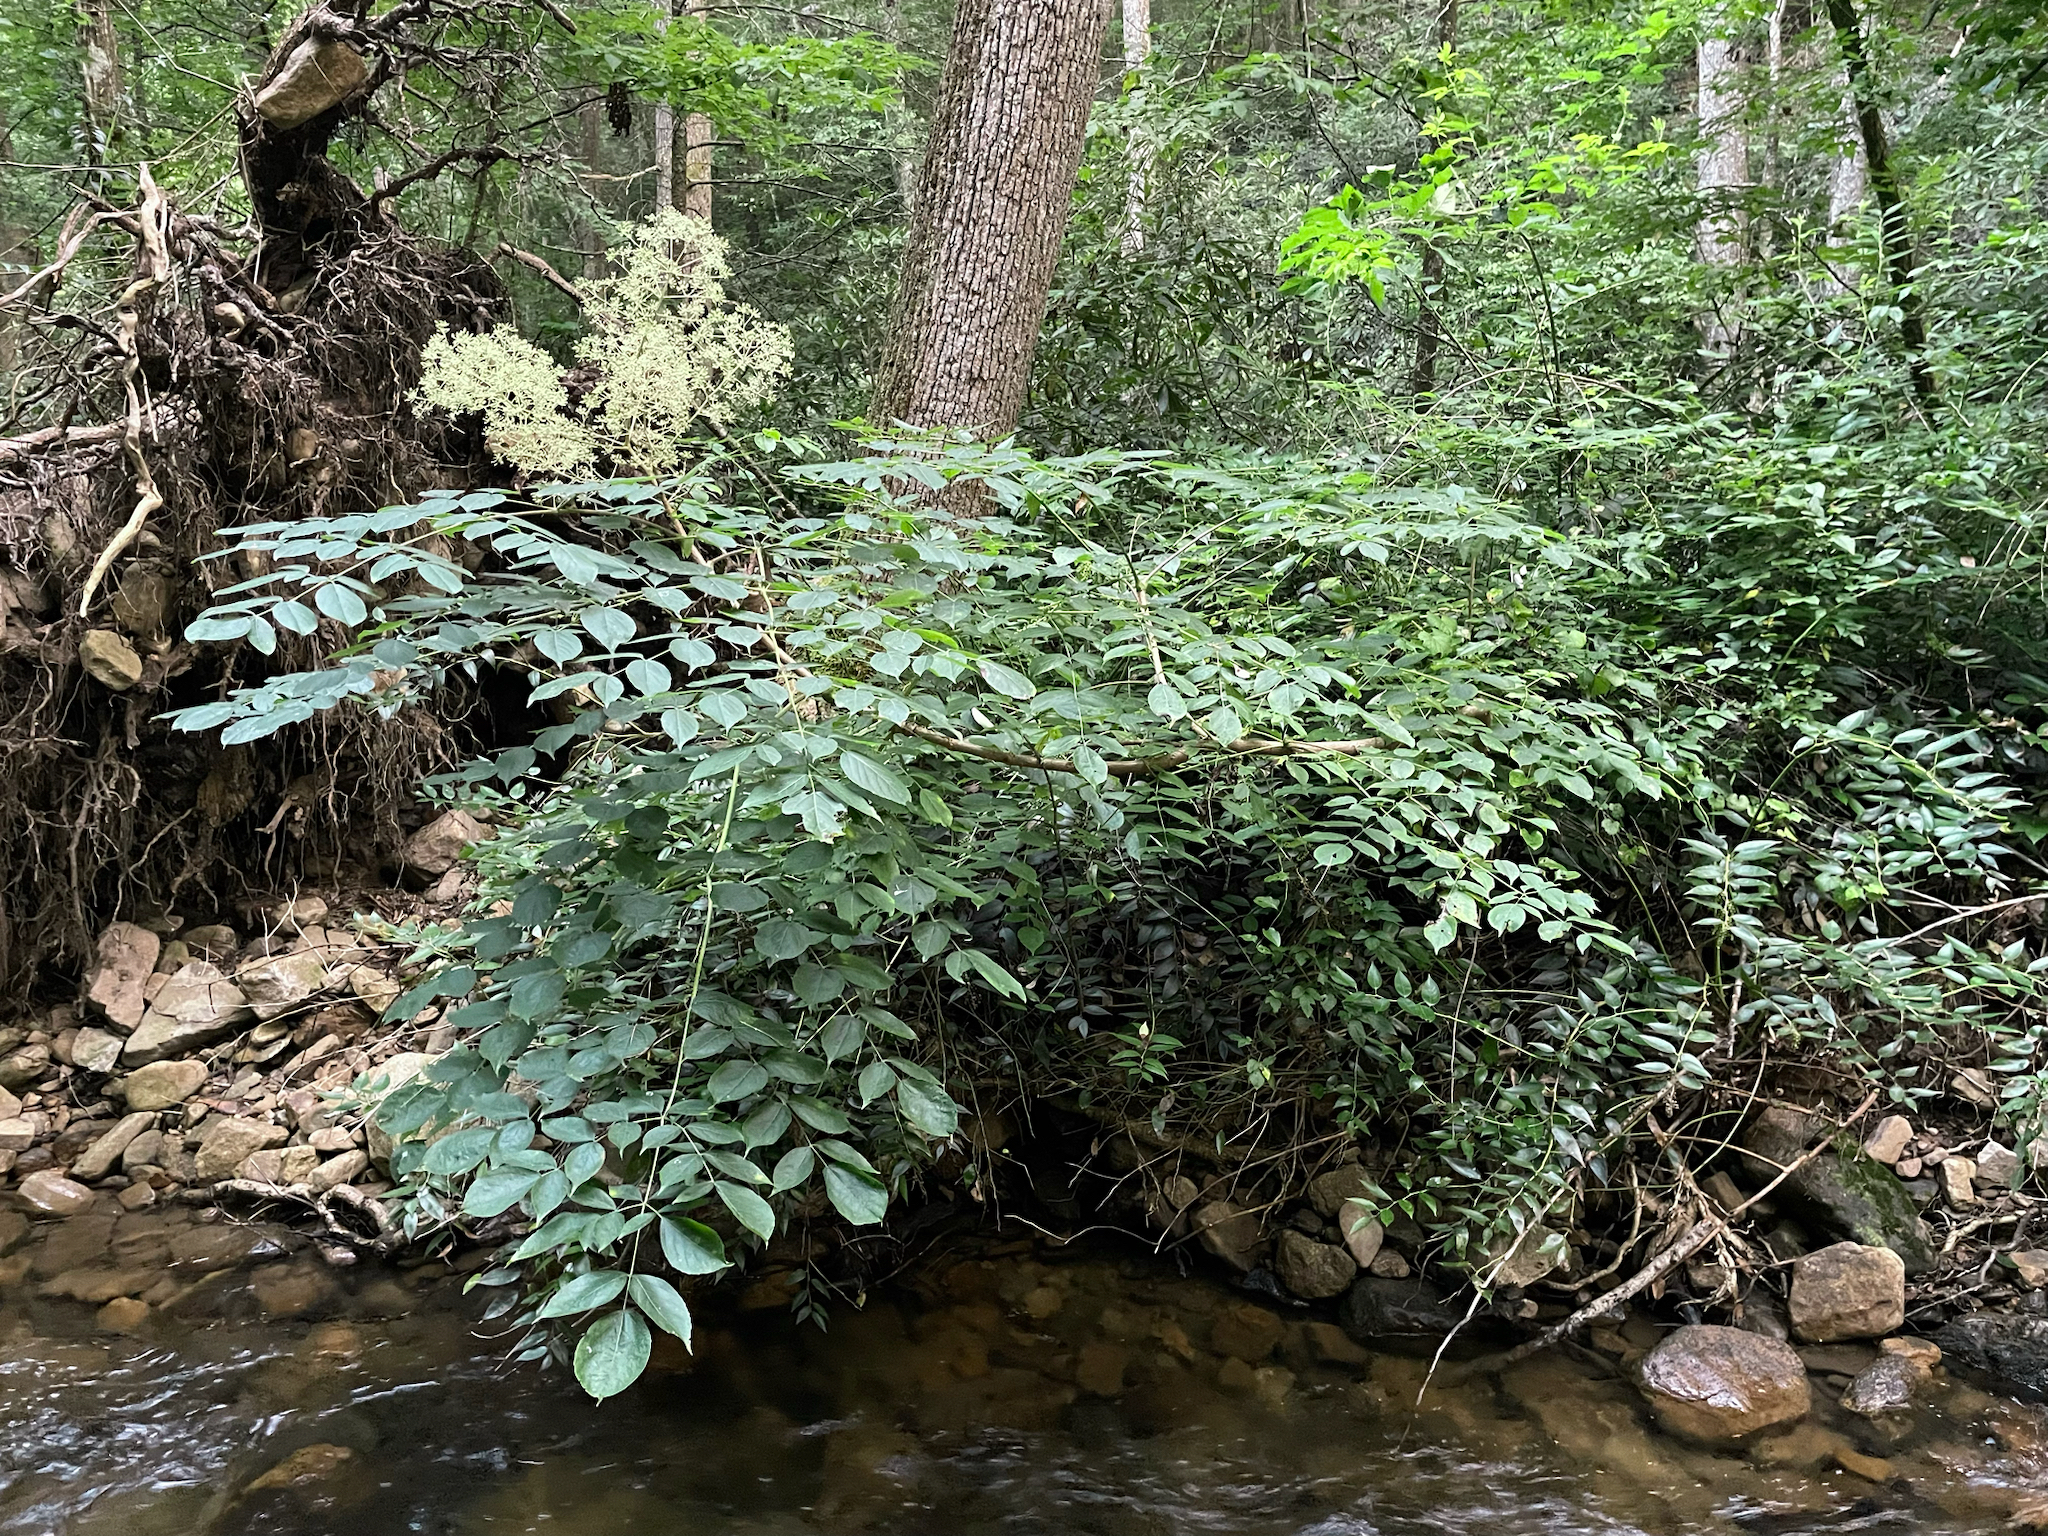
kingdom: Plantae
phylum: Tracheophyta
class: Magnoliopsida
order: Apiales
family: Araliaceae
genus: Aralia
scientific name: Aralia spinosa
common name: Hercules'-club
